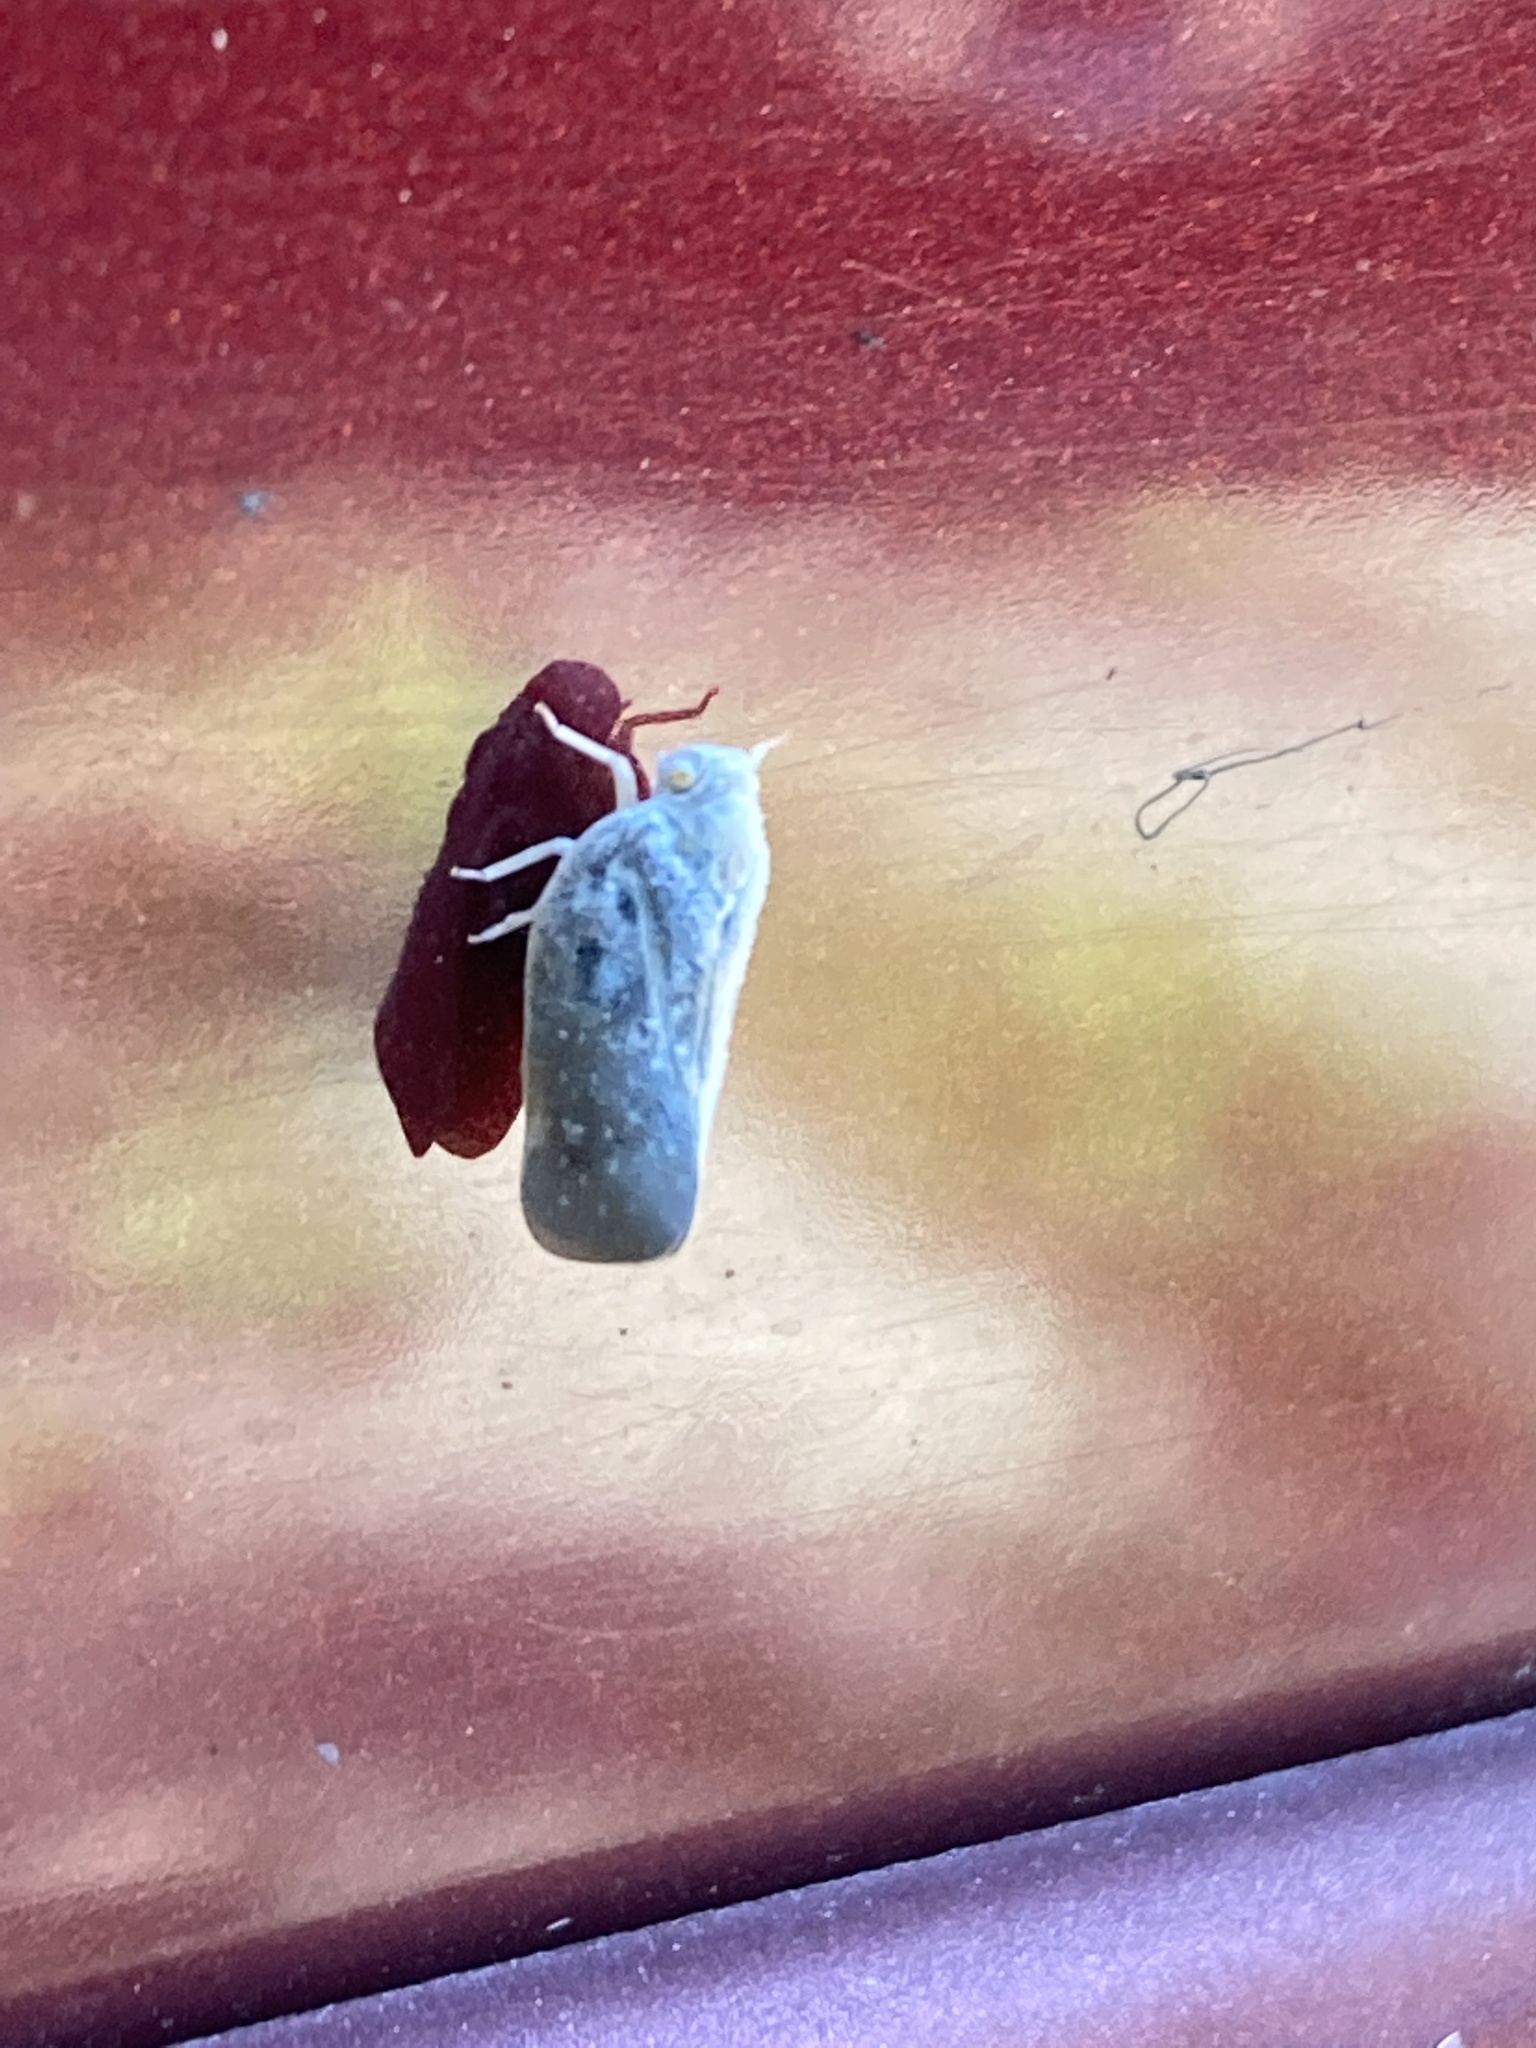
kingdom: Animalia
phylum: Arthropoda
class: Insecta
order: Hemiptera
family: Flatidae
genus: Metcalfa
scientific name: Metcalfa pruinosa
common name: Citrus flatid planthopper
